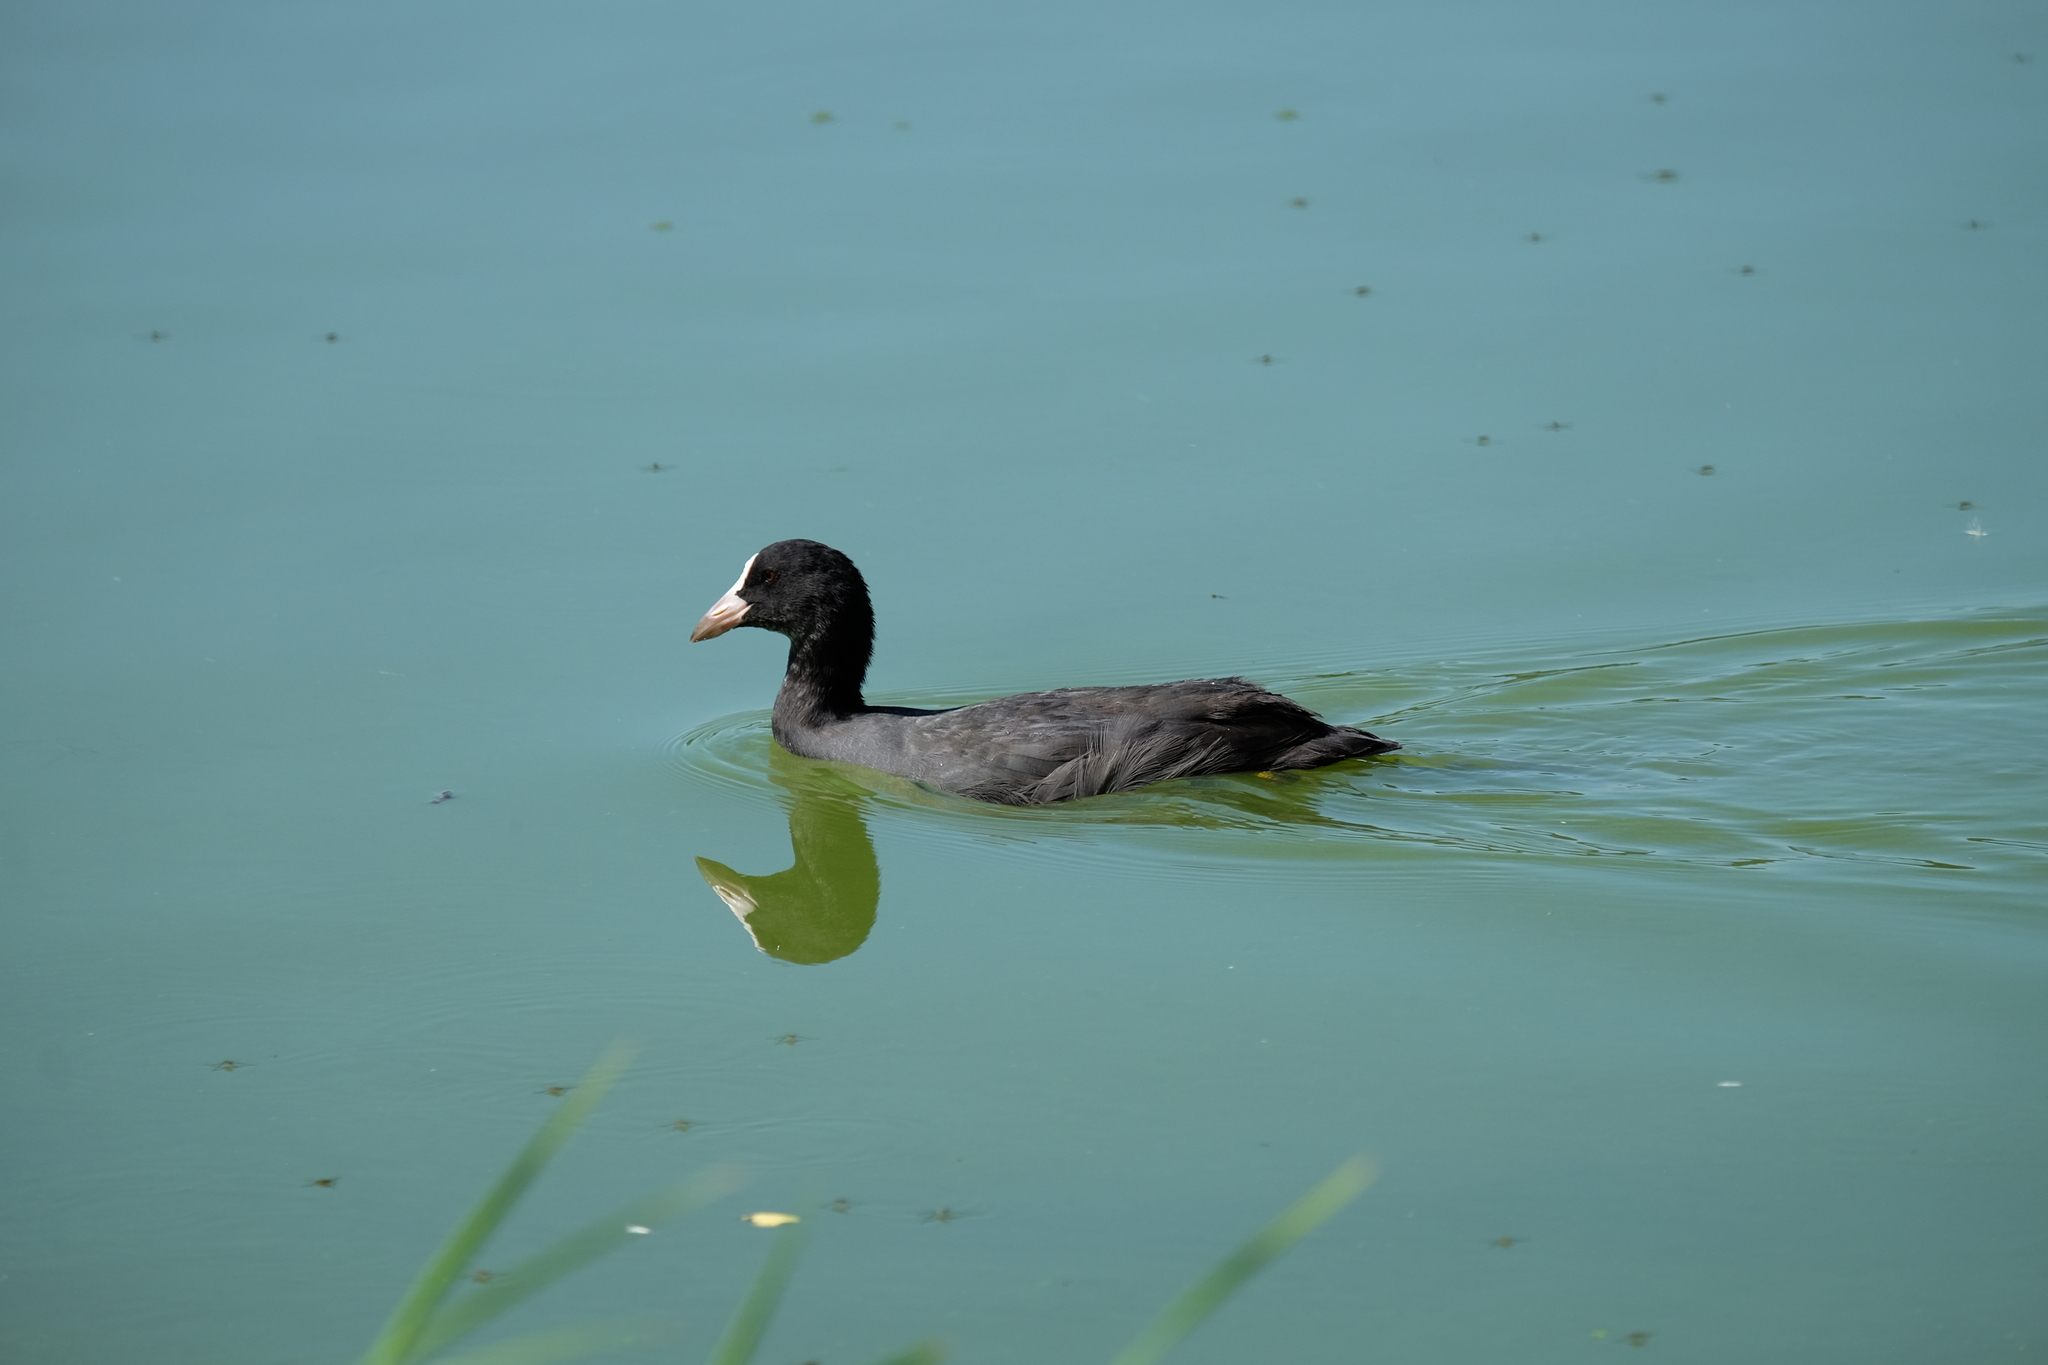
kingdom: Animalia
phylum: Chordata
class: Aves
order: Gruiformes
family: Rallidae
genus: Fulica
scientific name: Fulica atra
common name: Eurasian coot
